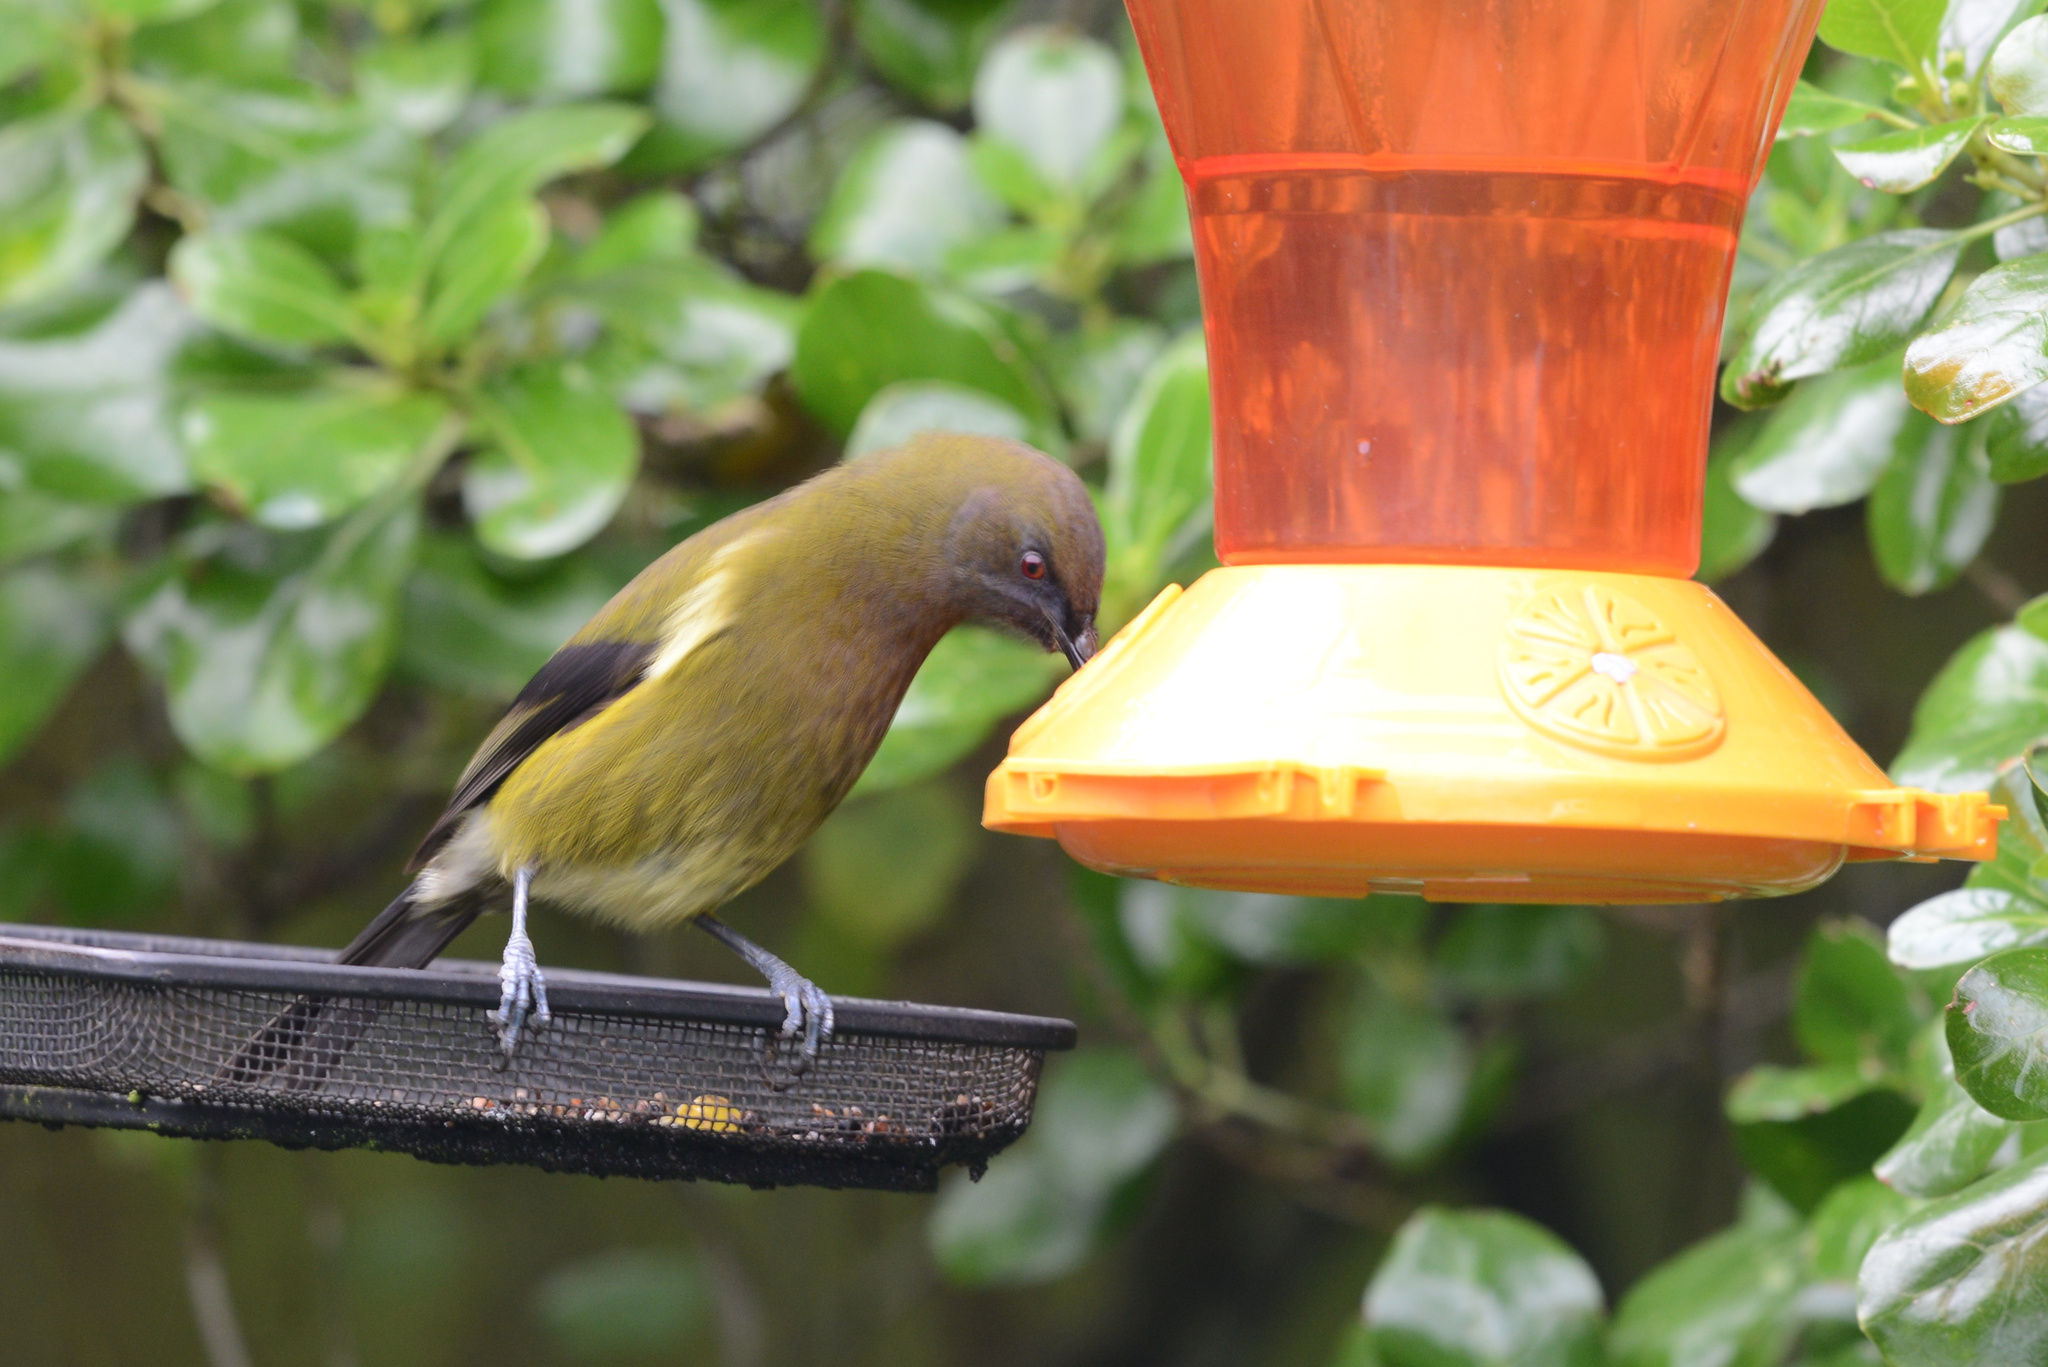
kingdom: Animalia
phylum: Chordata
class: Aves
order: Passeriformes
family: Meliphagidae
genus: Anthornis
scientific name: Anthornis melanura
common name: New zealand bellbird
